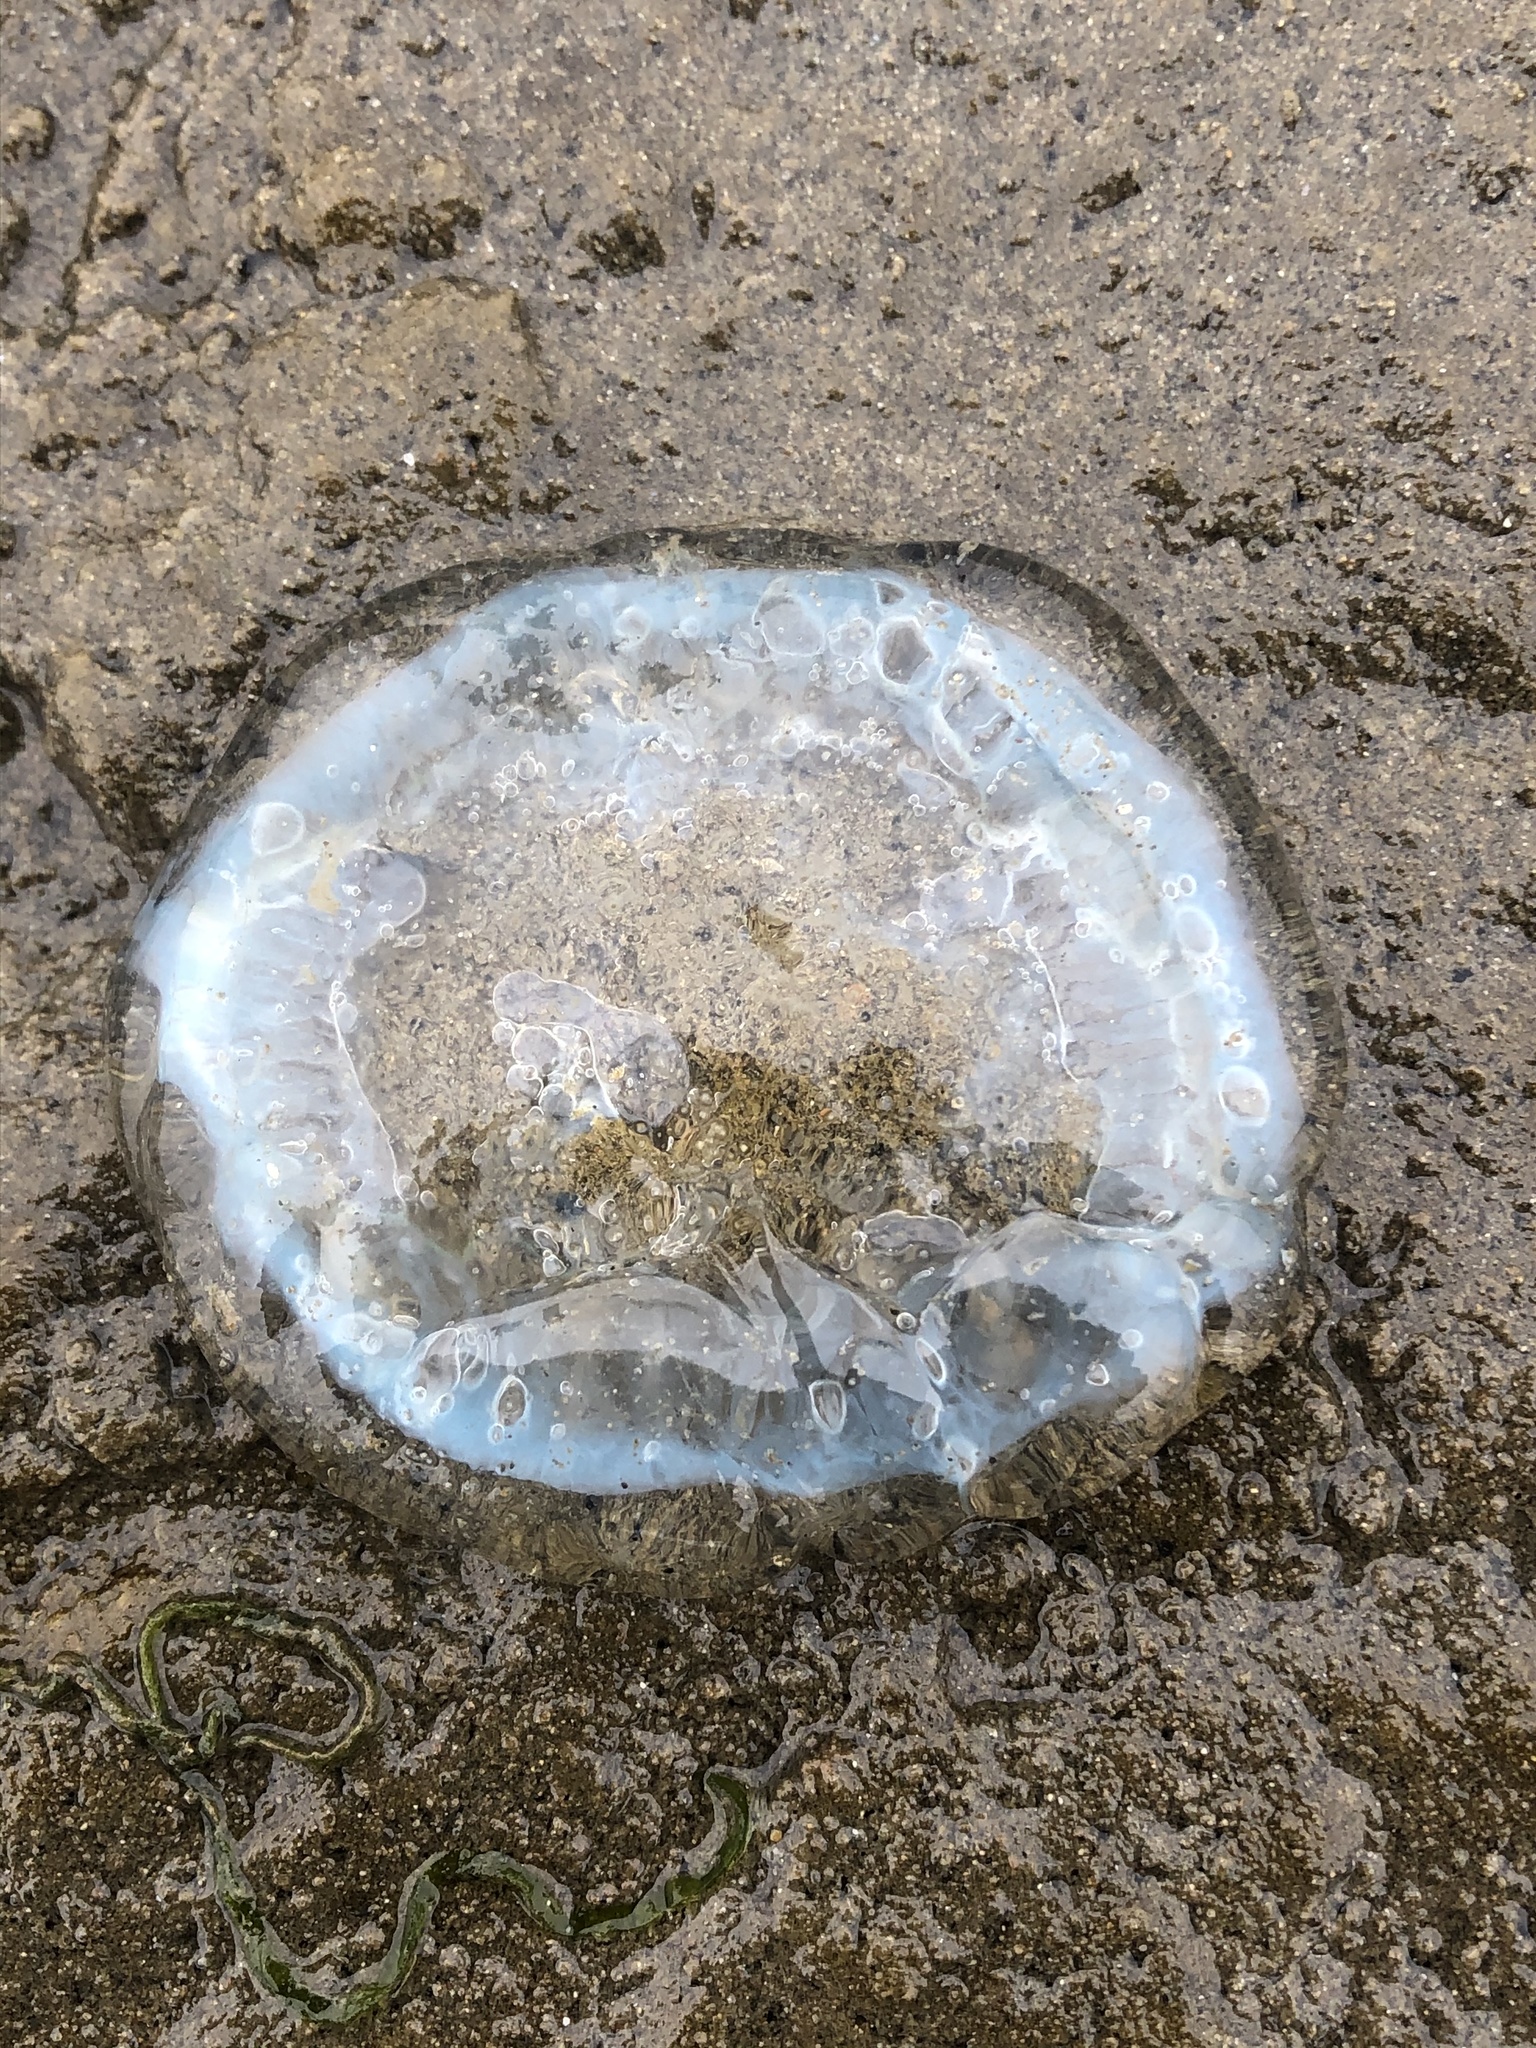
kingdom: Animalia
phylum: Cnidaria
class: Hydrozoa
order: Leptothecata
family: Aequoreidae
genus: Aequorea
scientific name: Aequorea victoria
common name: Water jellyfish
